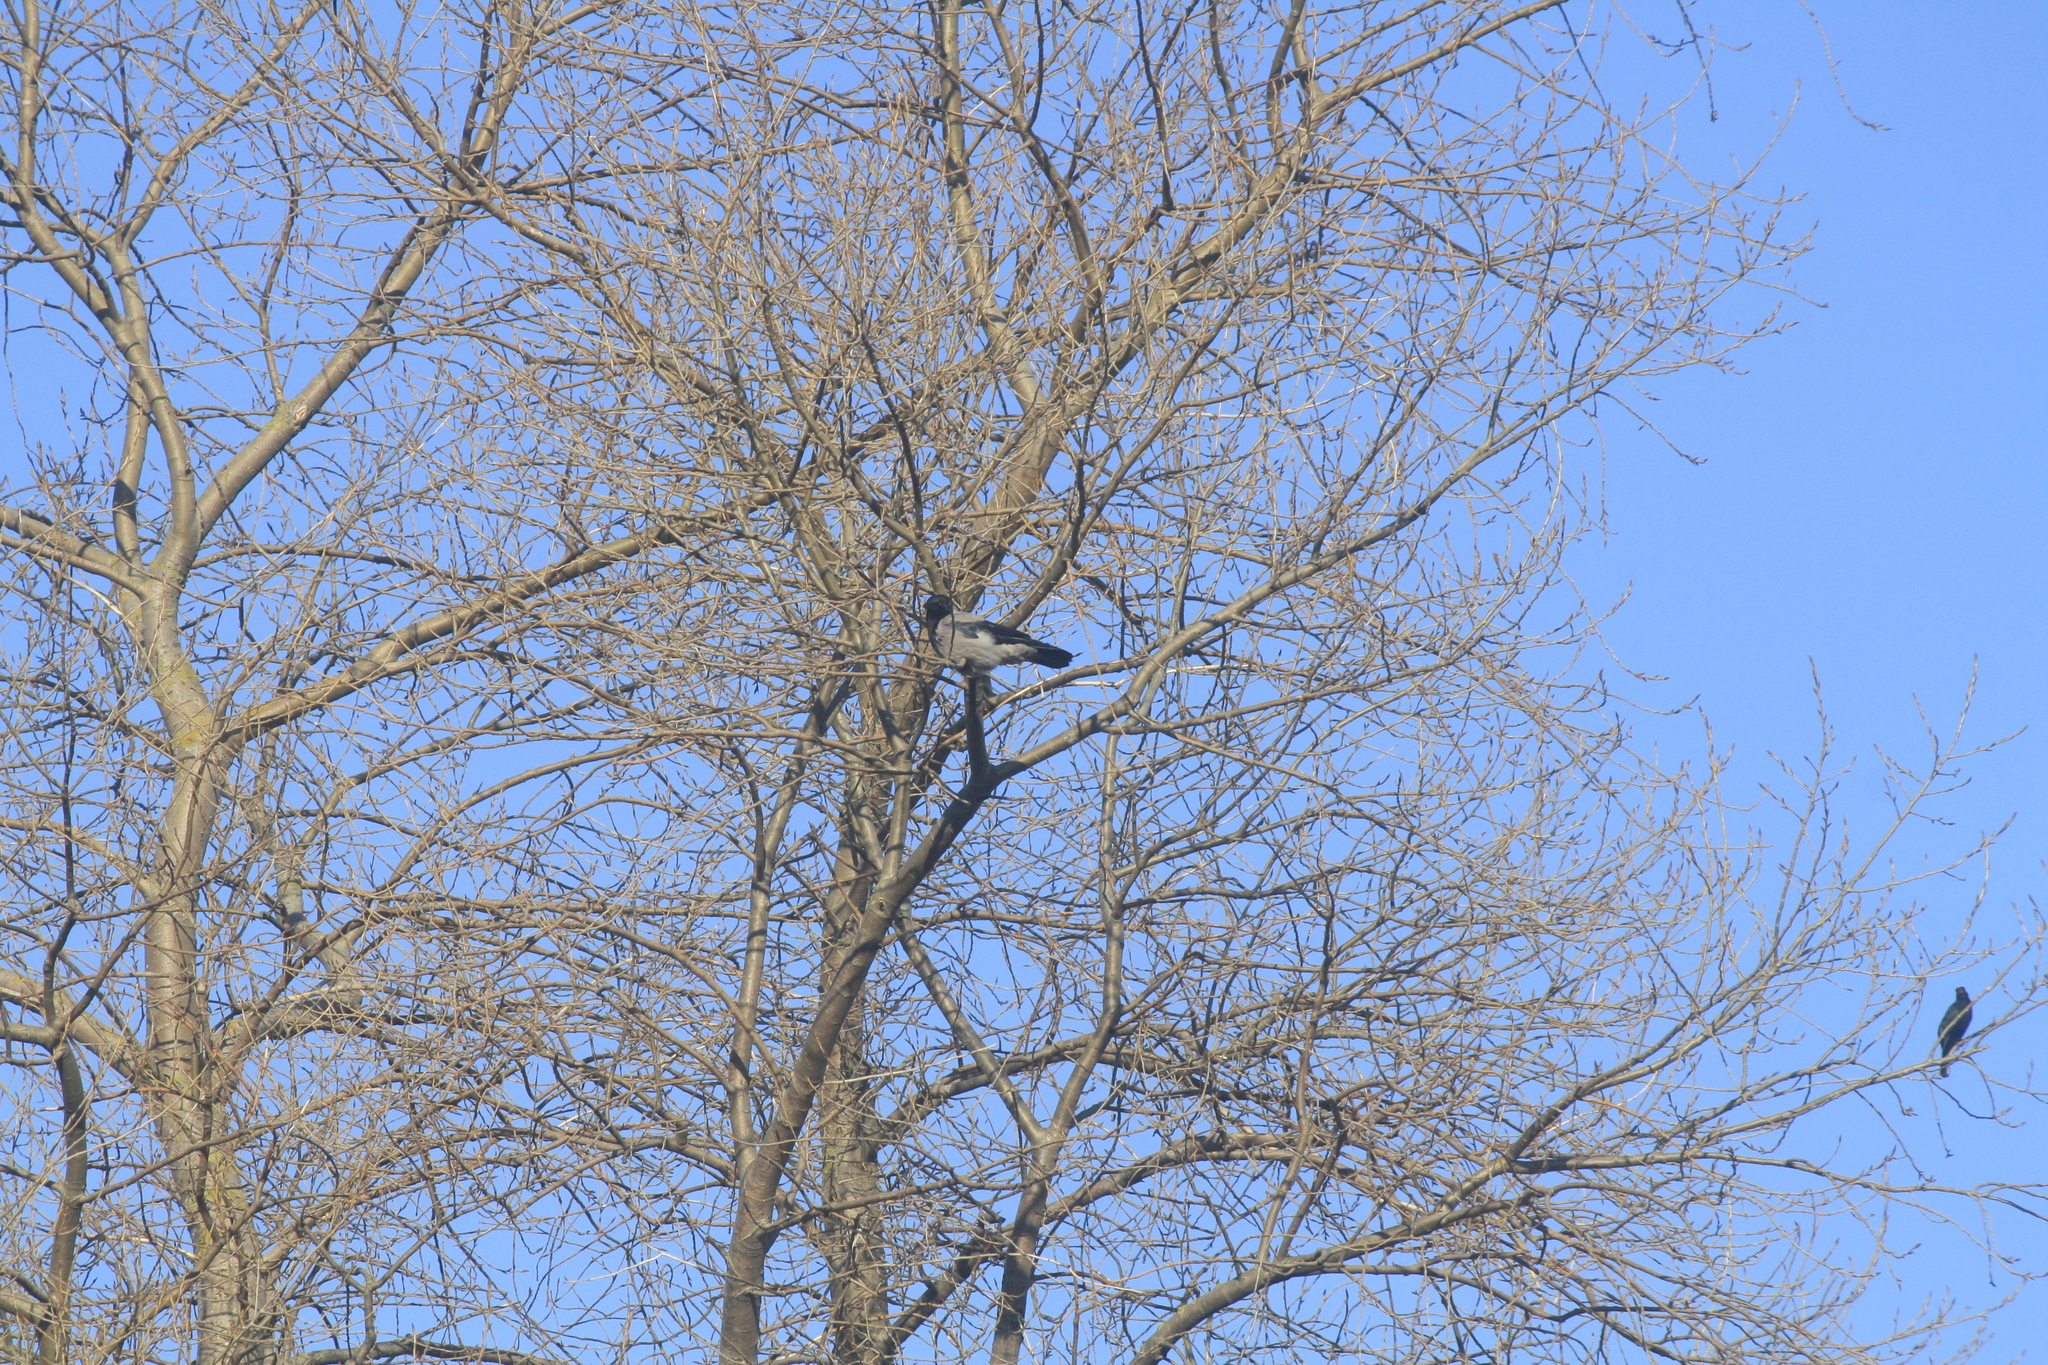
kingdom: Animalia
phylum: Chordata
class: Aves
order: Passeriformes
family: Corvidae
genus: Corvus
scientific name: Corvus cornix
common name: Hooded crow
